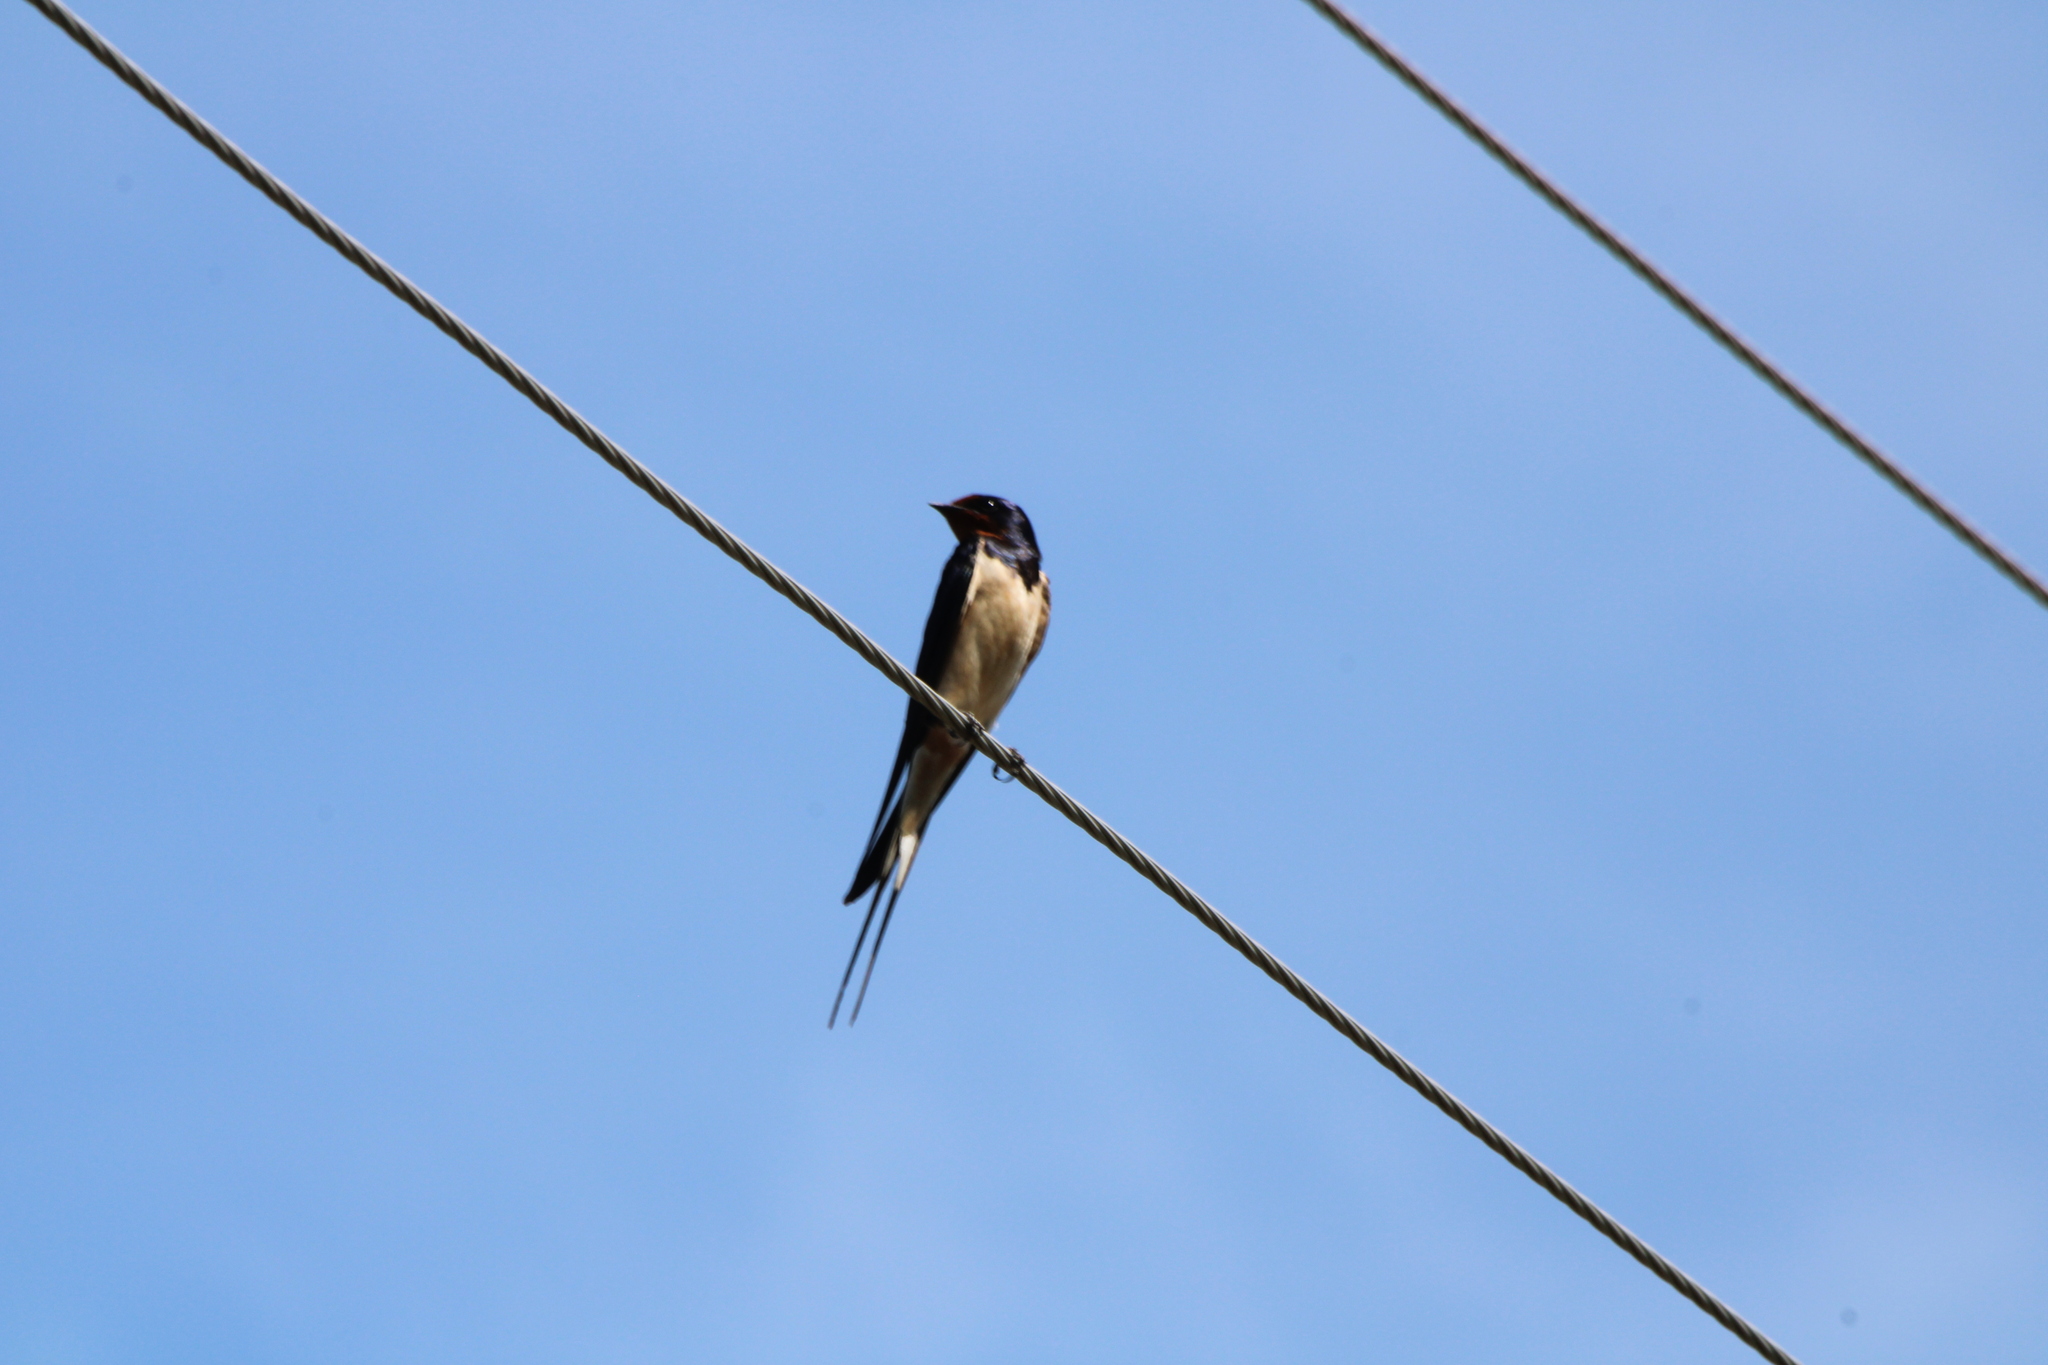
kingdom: Animalia
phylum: Chordata
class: Aves
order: Passeriformes
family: Hirundinidae
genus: Hirundo
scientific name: Hirundo rustica
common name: Barn swallow
